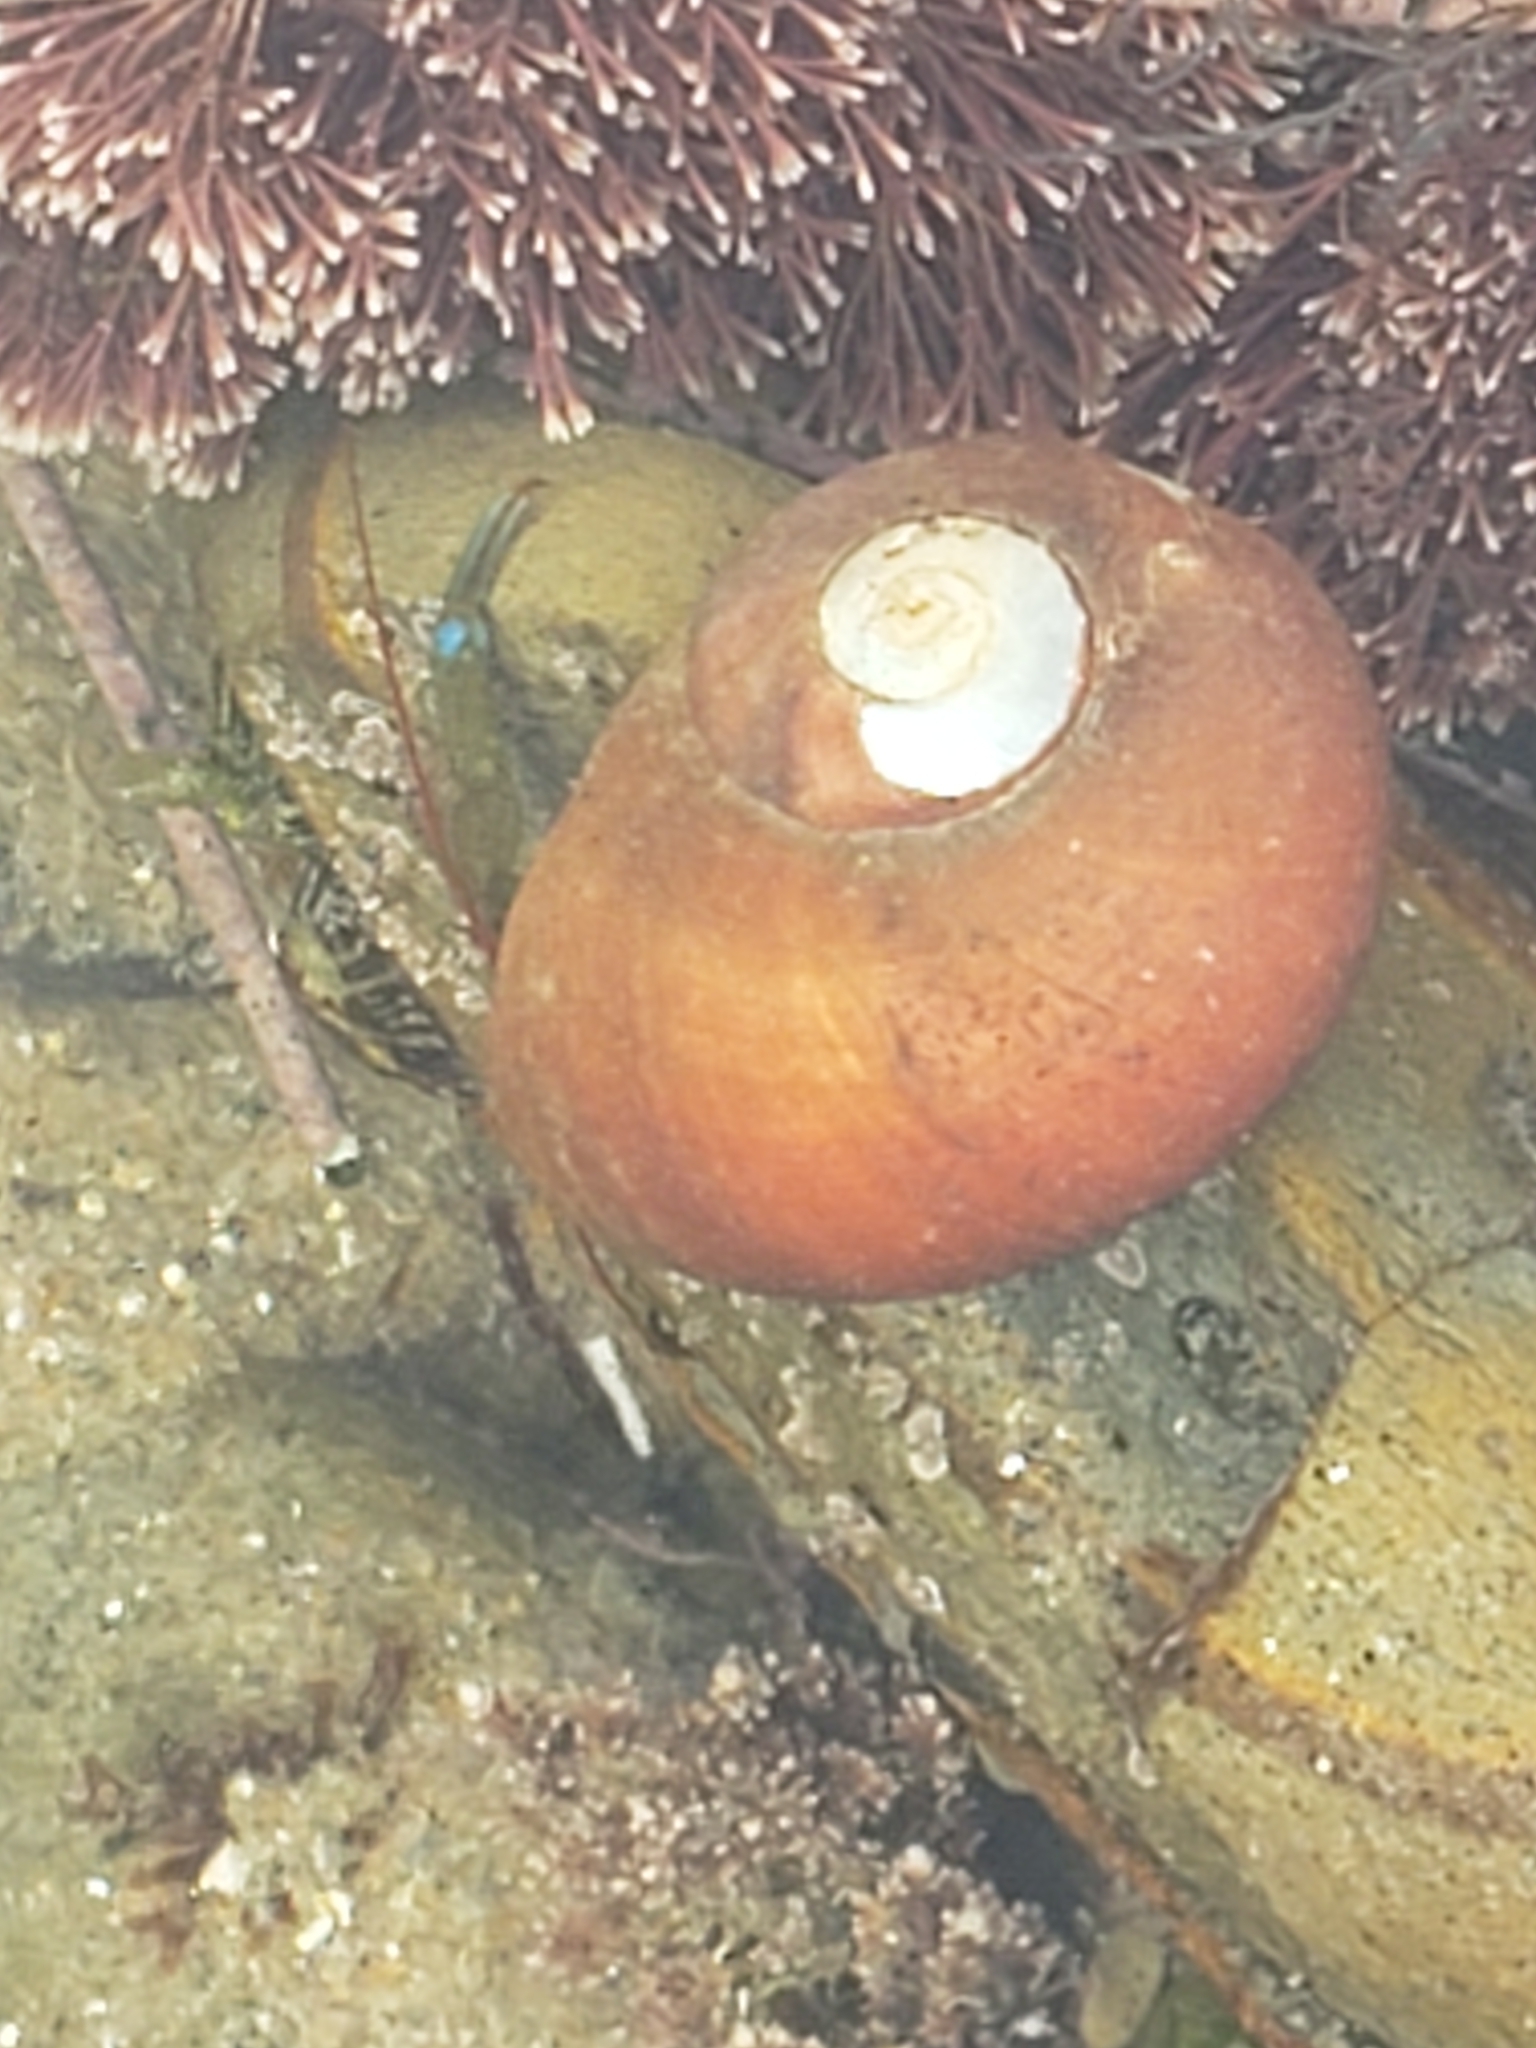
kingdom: Animalia
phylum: Mollusca
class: Gastropoda
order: Trochida
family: Tegulidae
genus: Norrisia
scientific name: Norrisia norrisii
